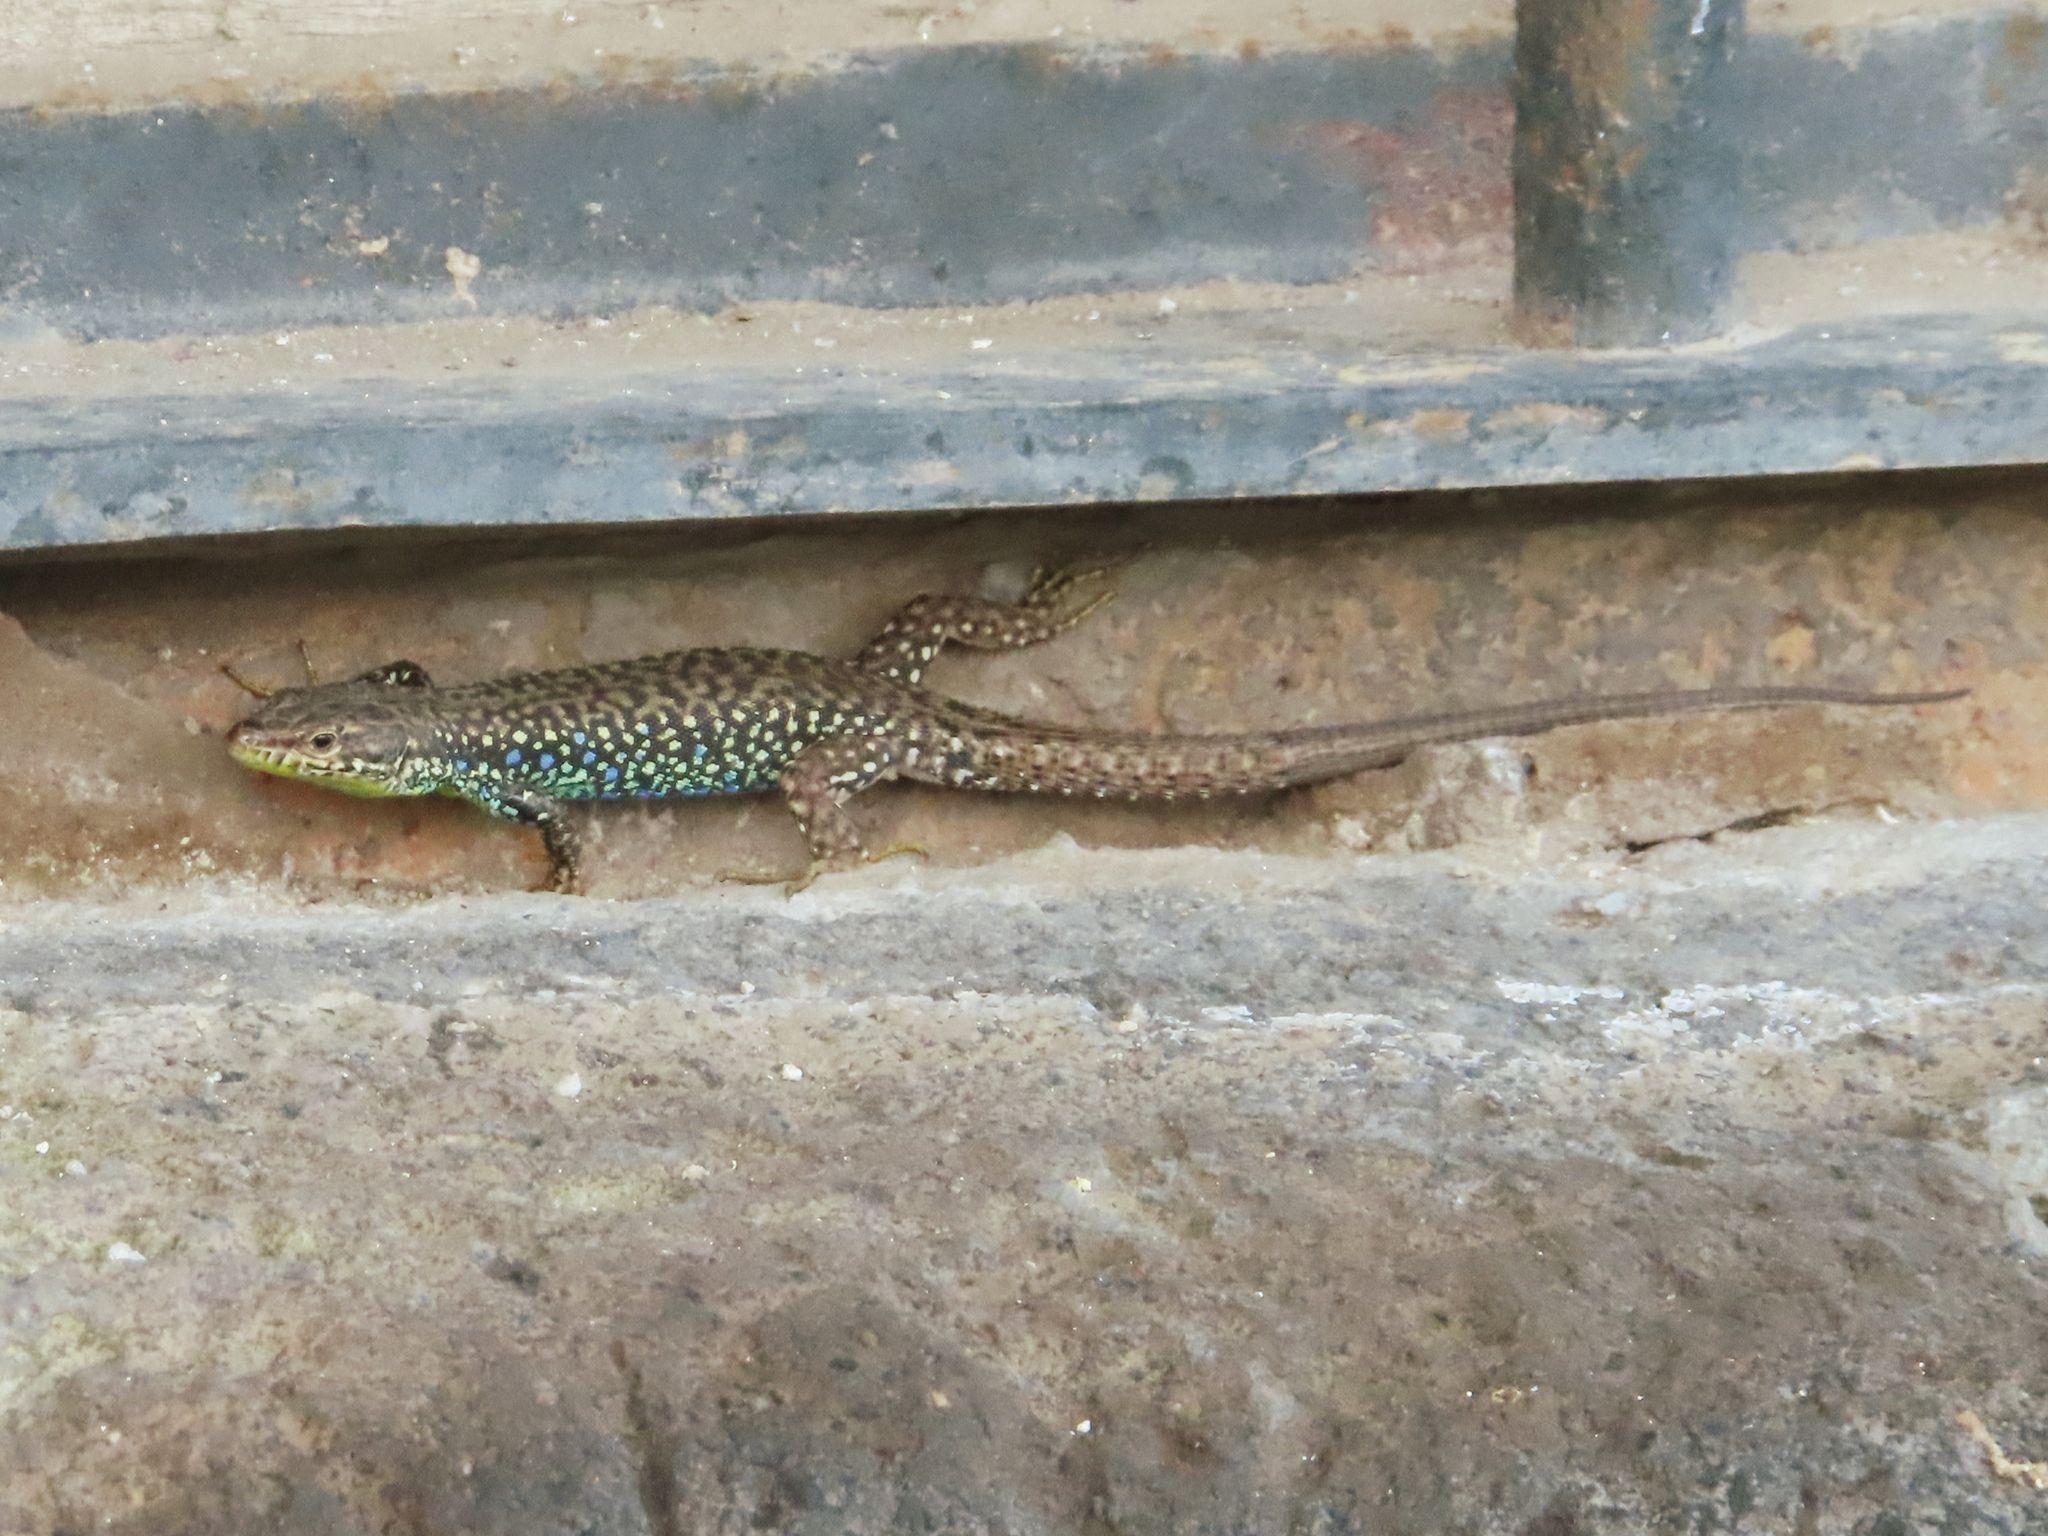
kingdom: Animalia
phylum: Chordata
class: Squamata
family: Lacertidae
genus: Darevskia
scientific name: Darevskia
